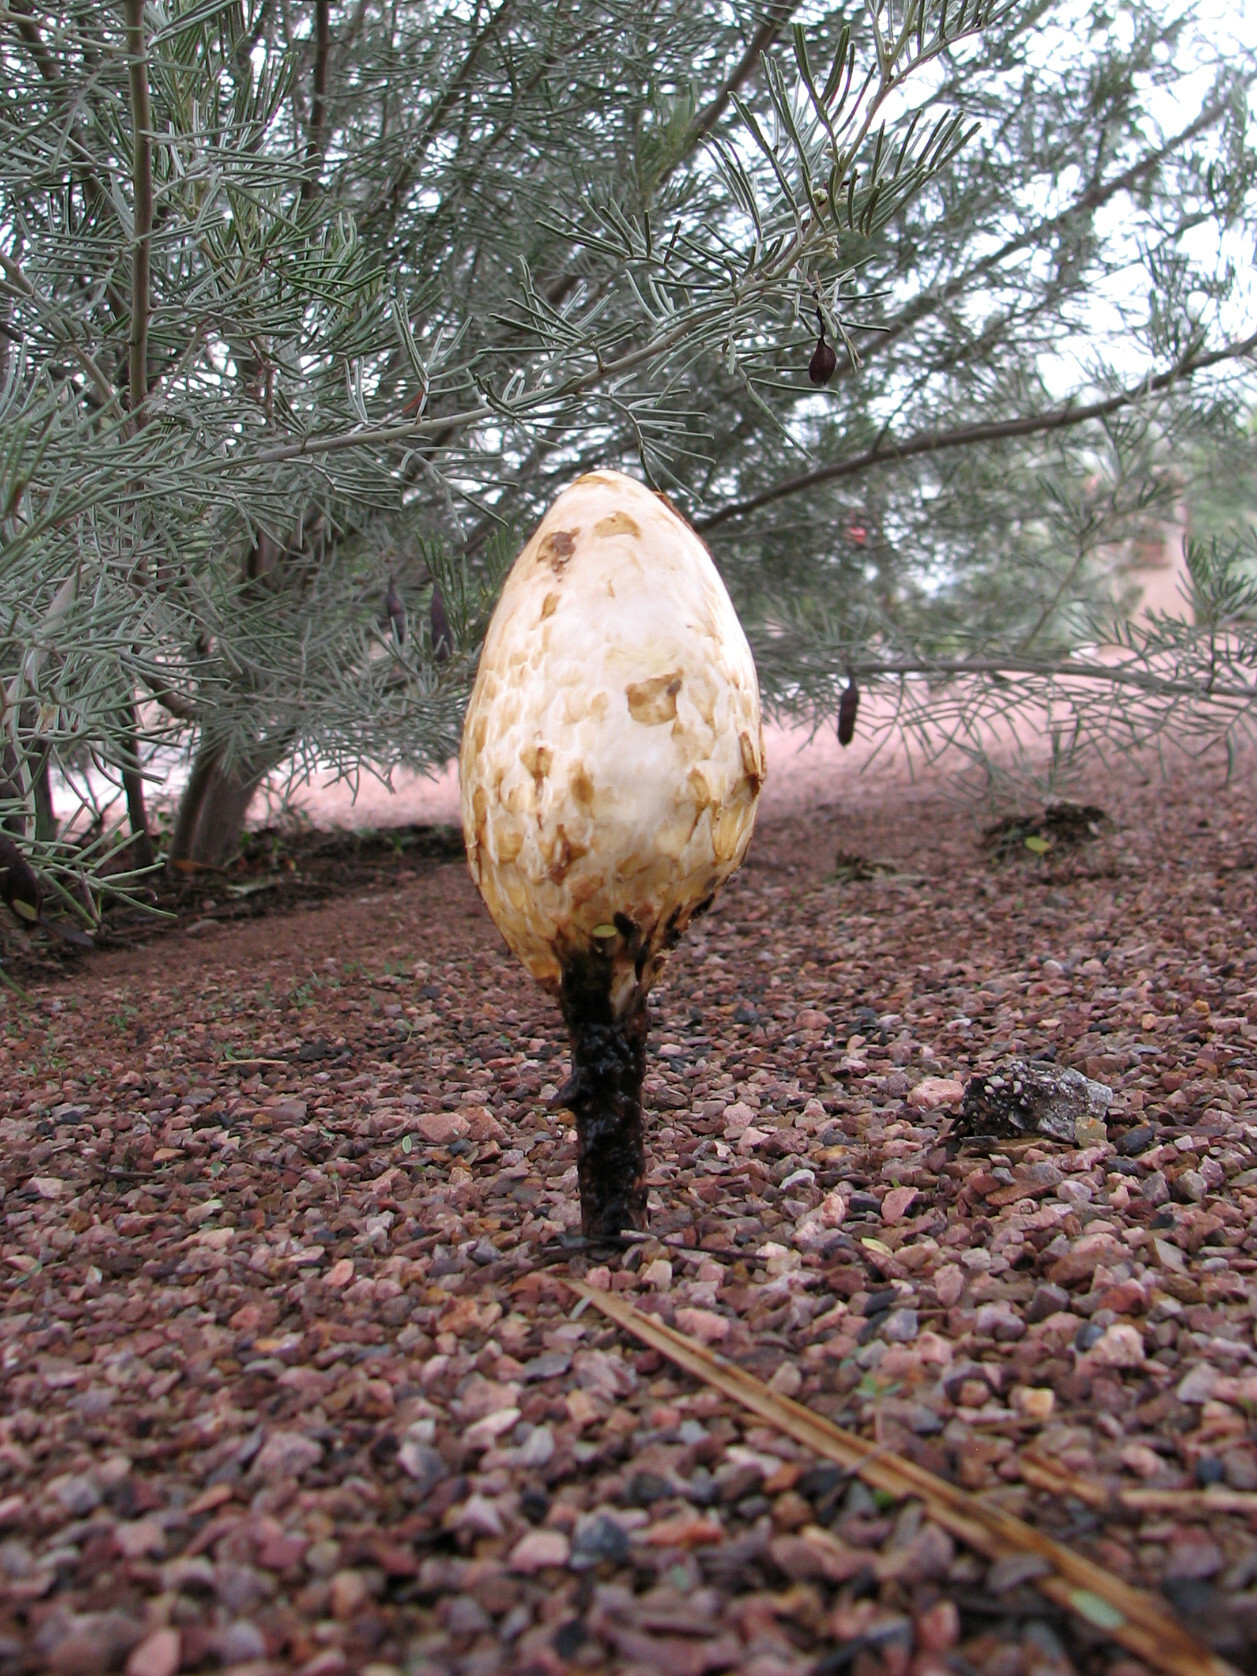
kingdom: Fungi
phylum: Basidiomycota
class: Agaricomycetes
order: Agaricales
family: Agaricaceae
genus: Podaxis
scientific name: Podaxis pistillaris
